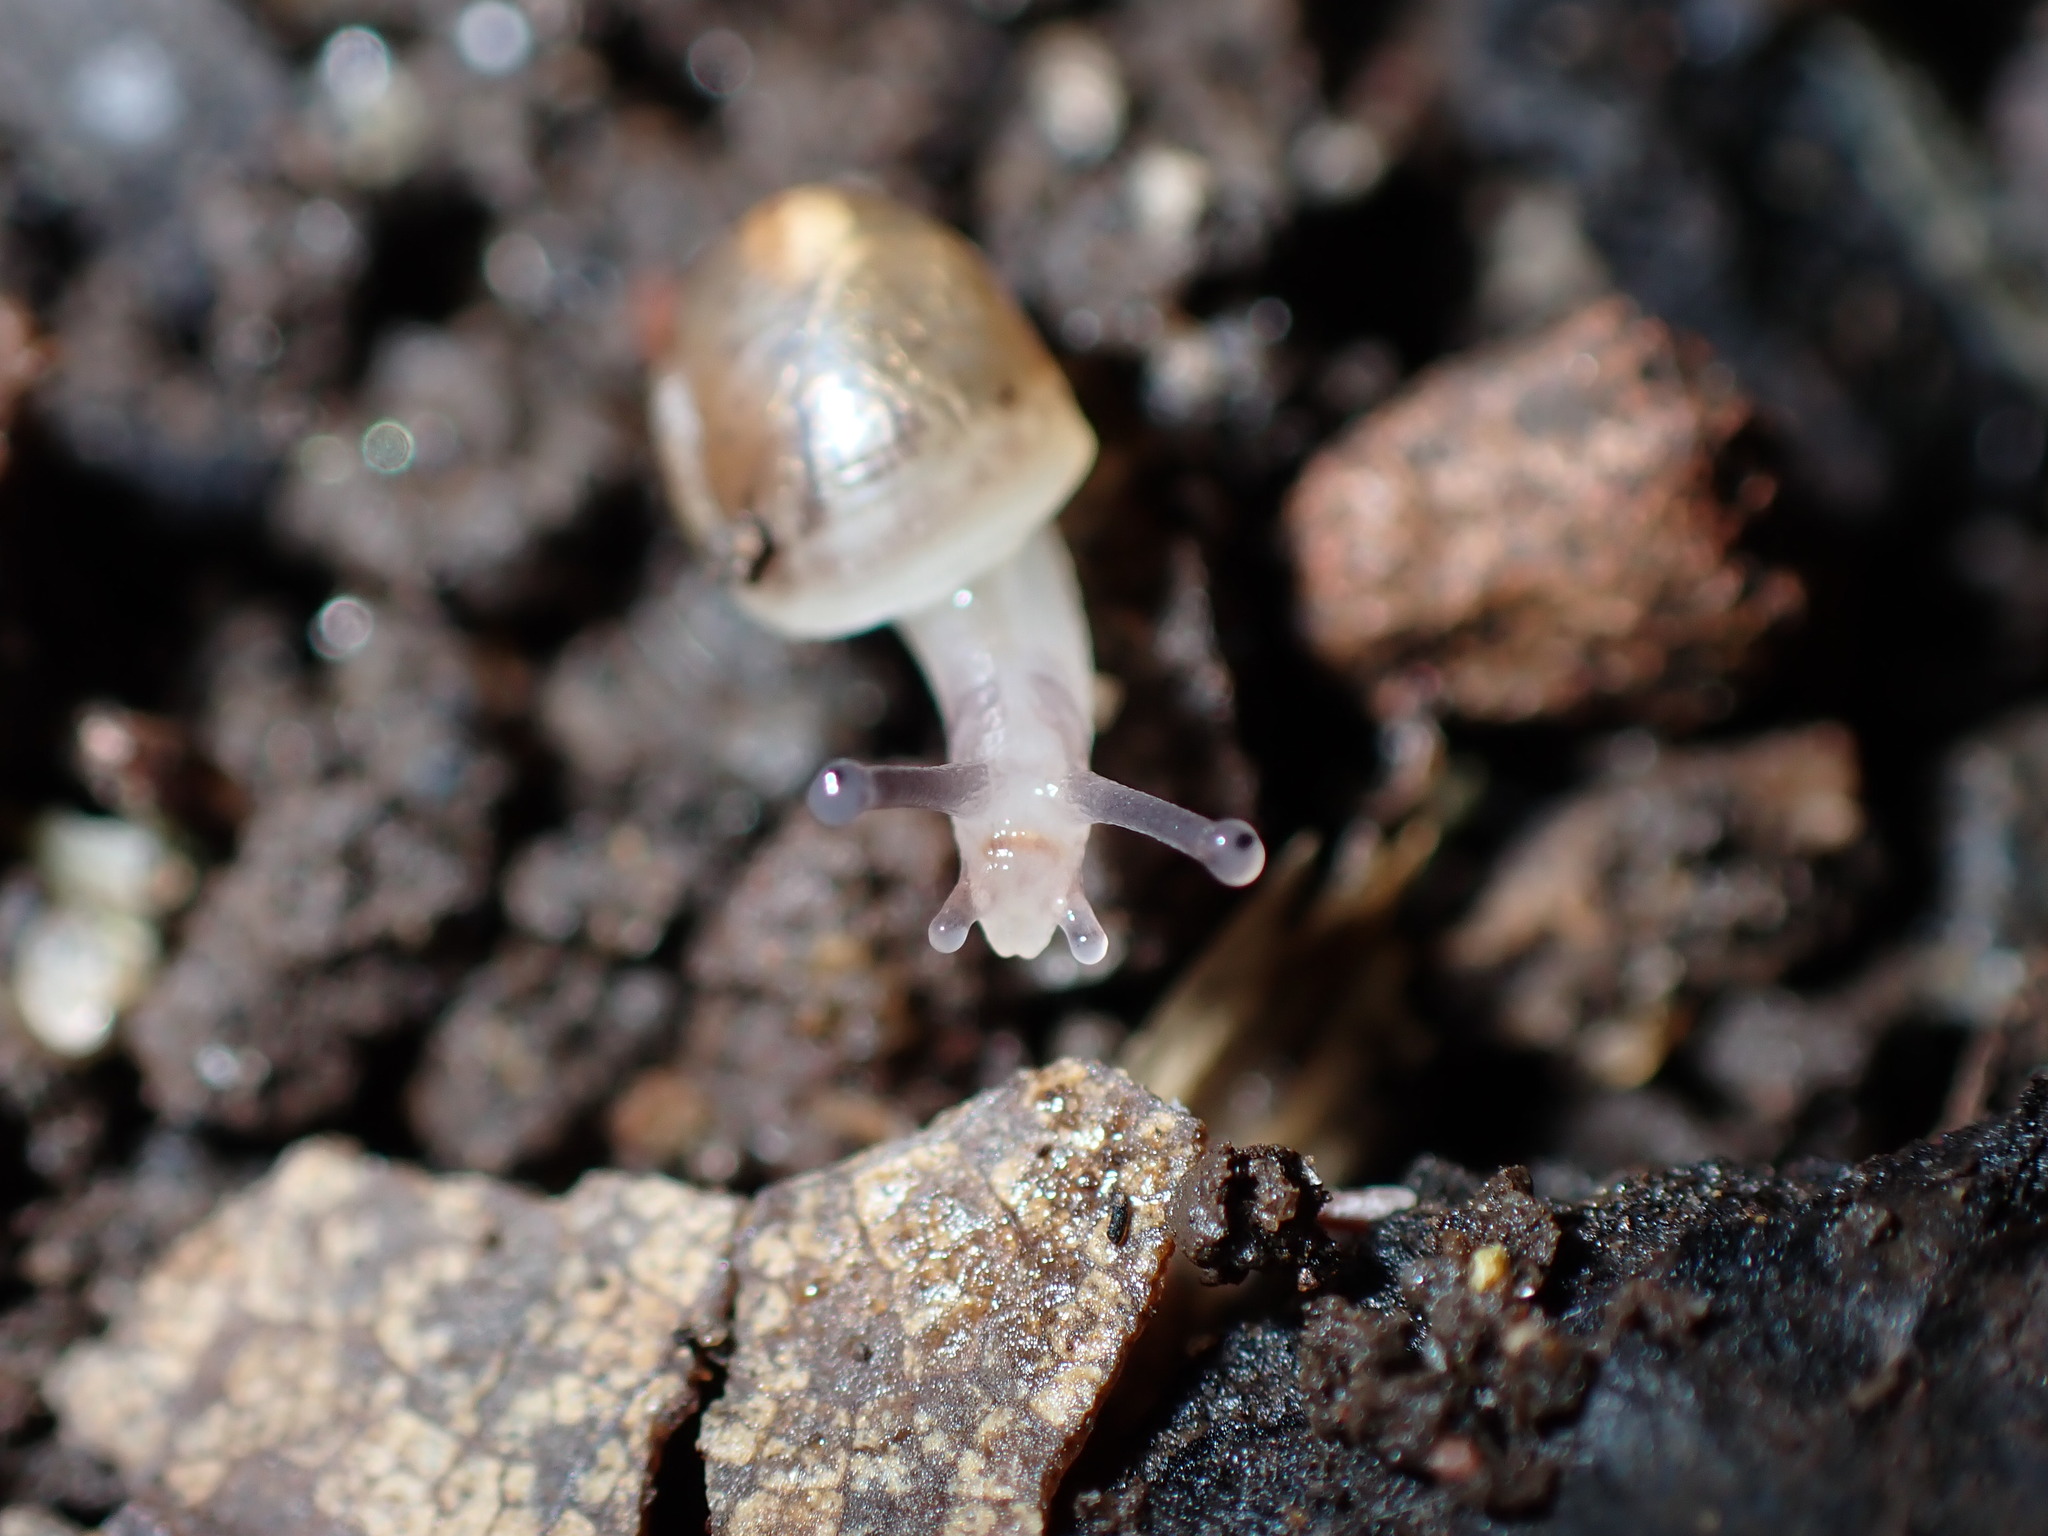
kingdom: Animalia
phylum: Mollusca
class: Gastropoda
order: Stylommatophora
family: Helicidae
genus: Cornu
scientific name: Cornu aspersum
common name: Brown garden snail
